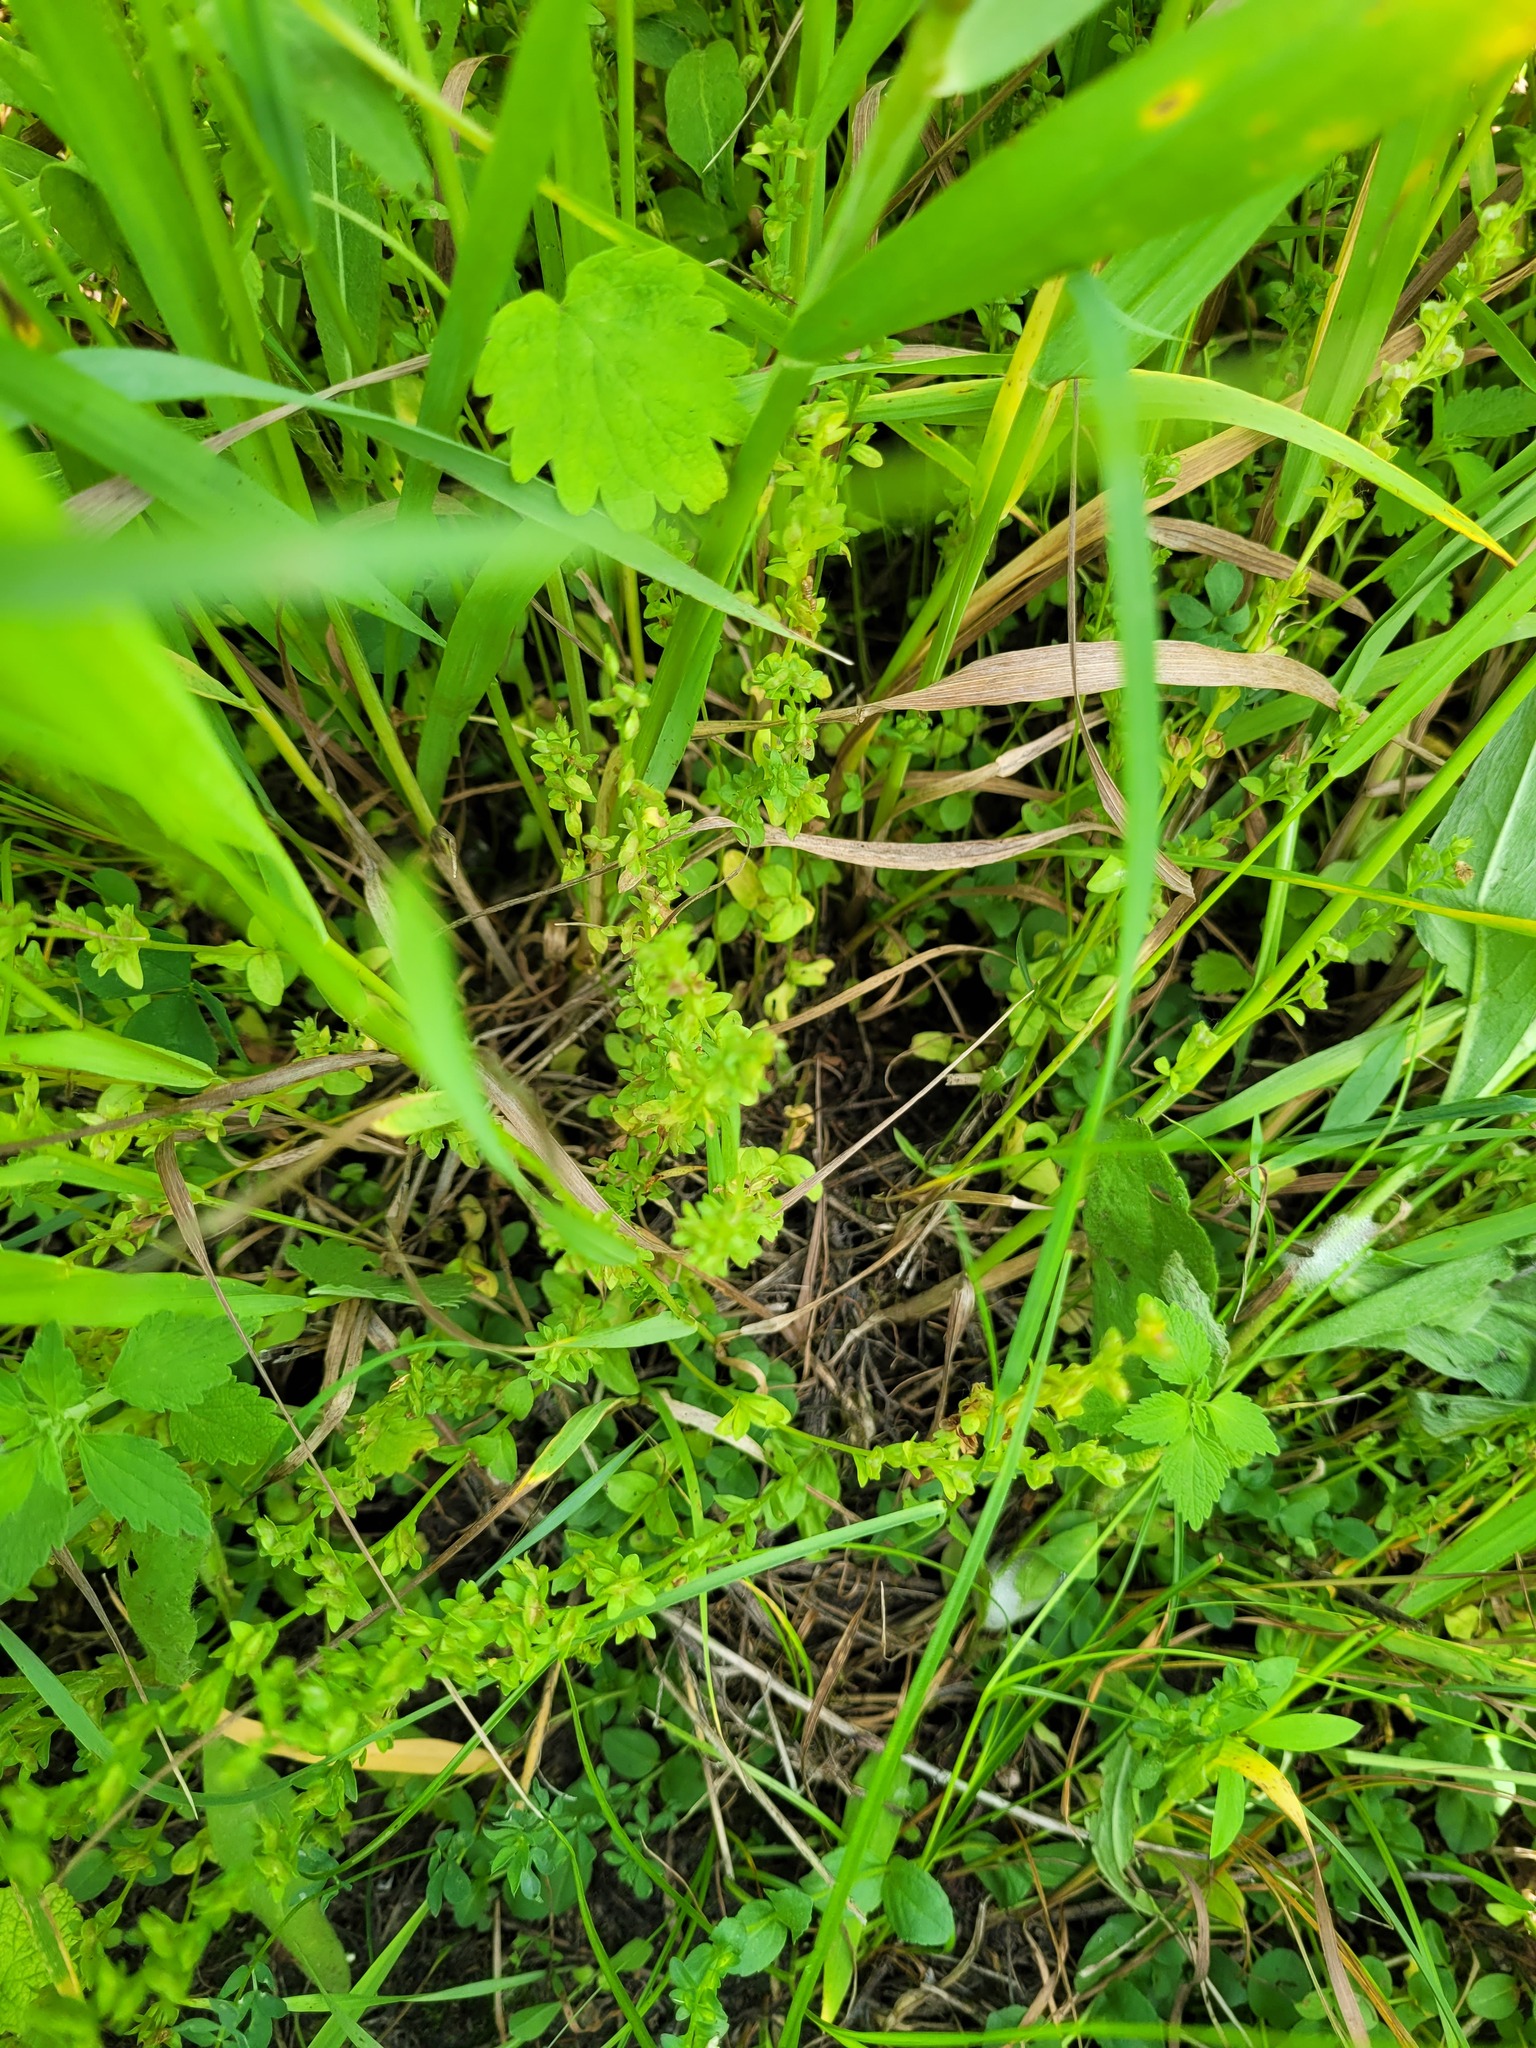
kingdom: Plantae
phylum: Tracheophyta
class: Magnoliopsida
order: Lamiales
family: Plantaginaceae
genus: Veronica
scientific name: Veronica serpyllifolia
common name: Thyme-leaved speedwell
